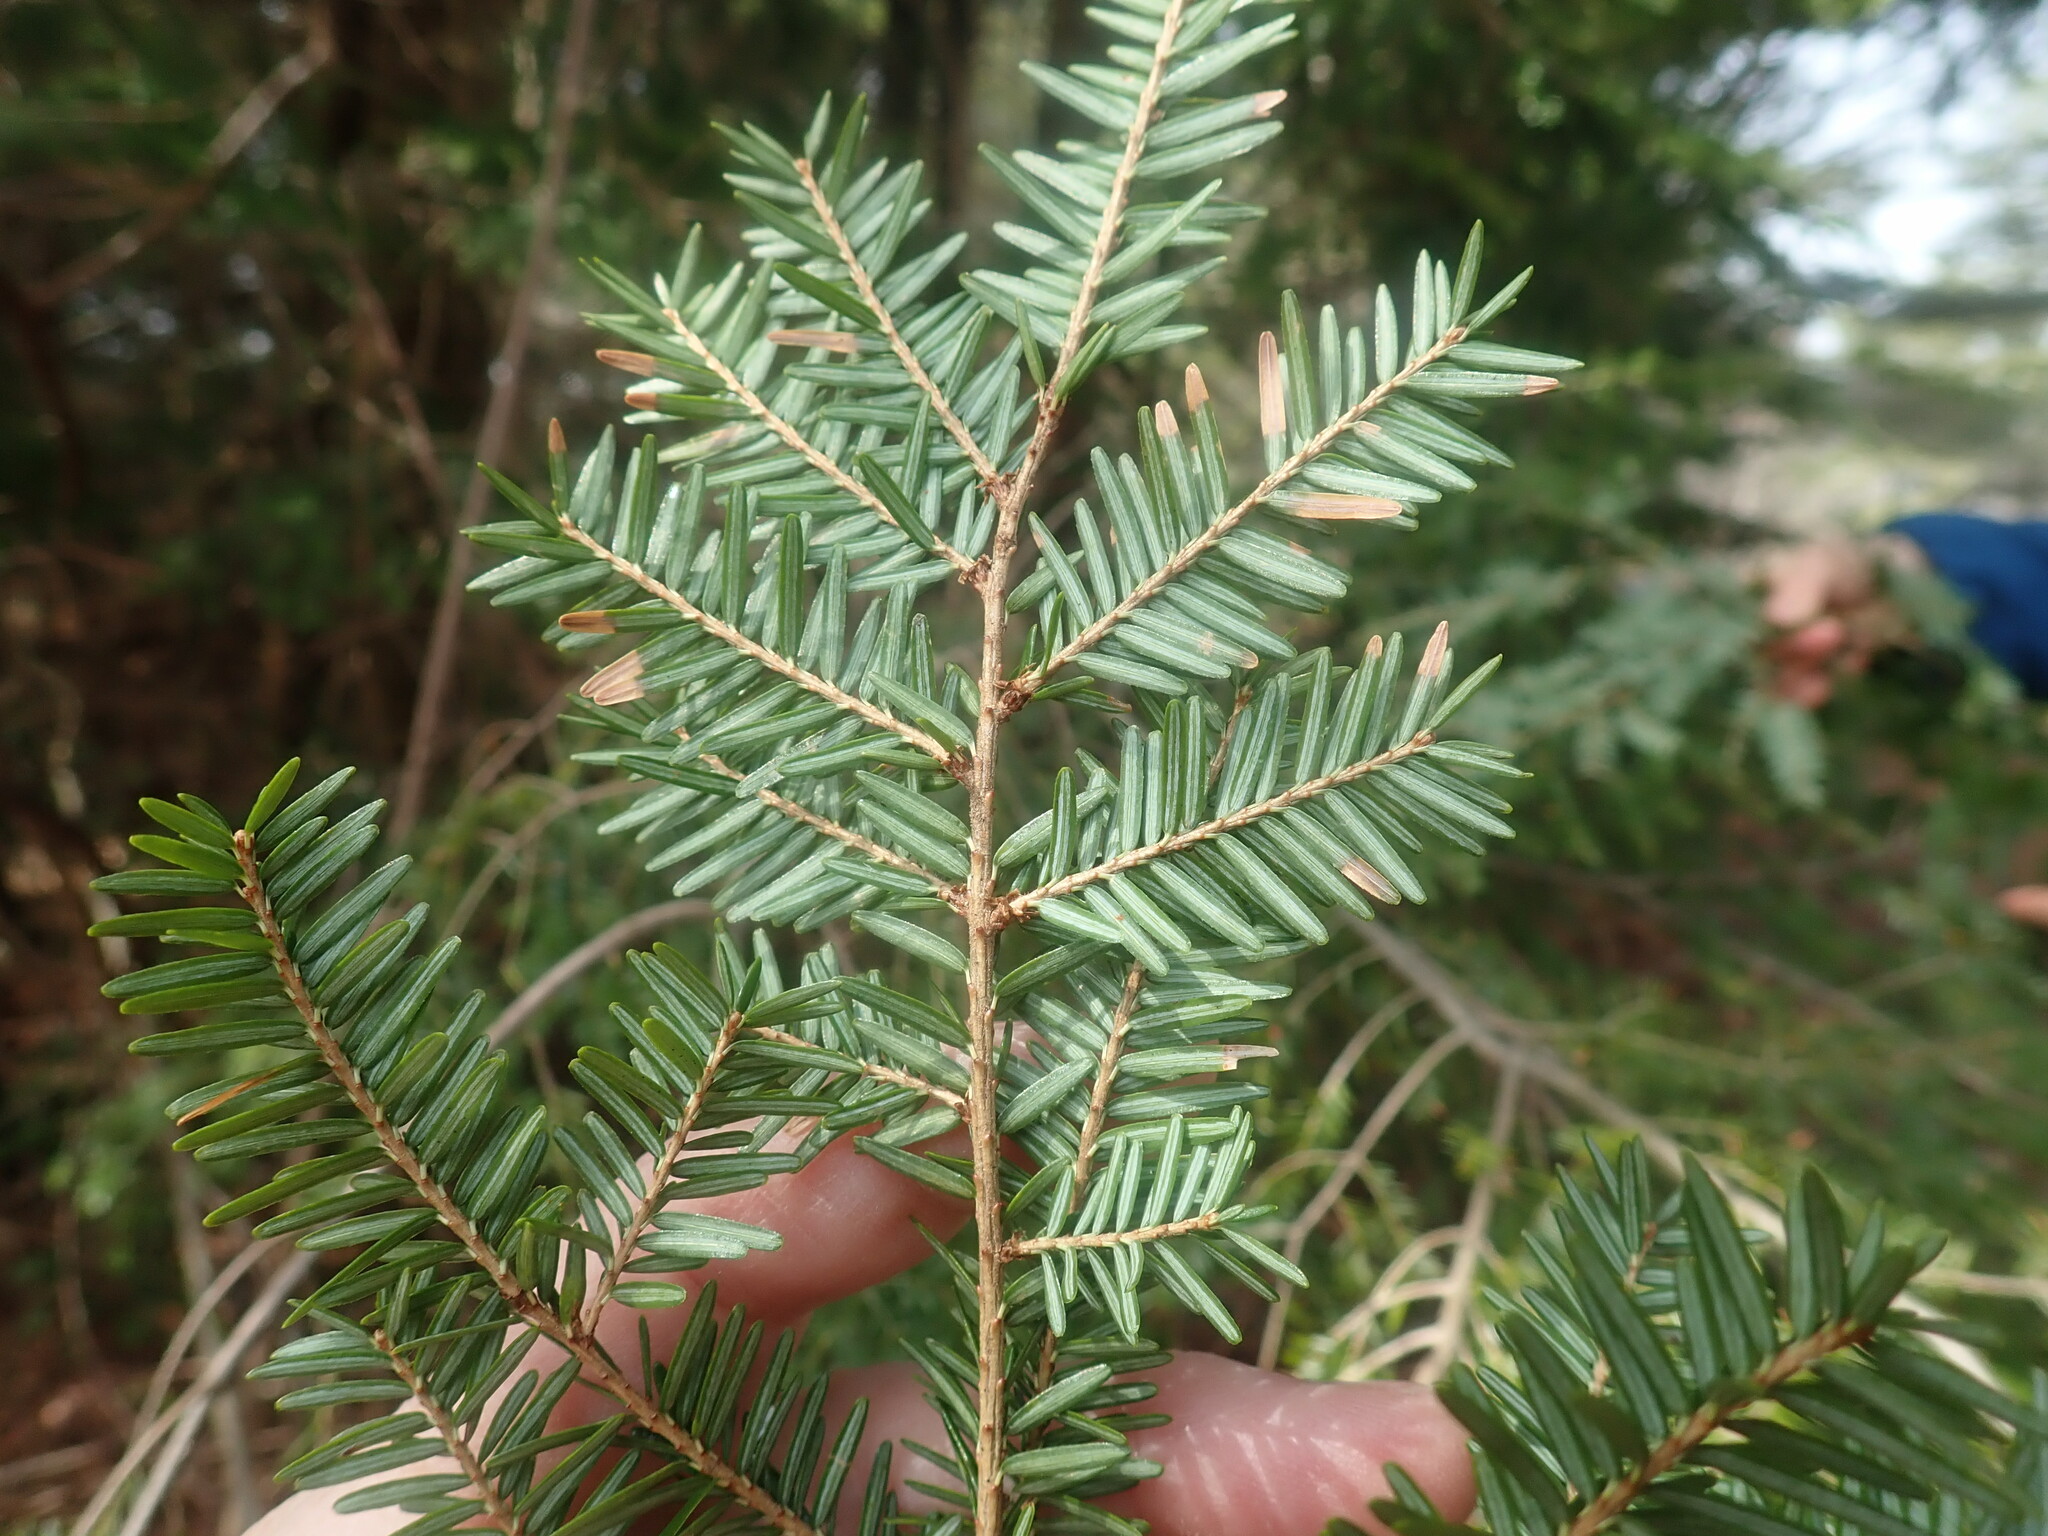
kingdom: Plantae
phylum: Tracheophyta
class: Pinopsida
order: Pinales
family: Pinaceae
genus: Tsuga
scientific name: Tsuga canadensis
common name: Eastern hemlock
